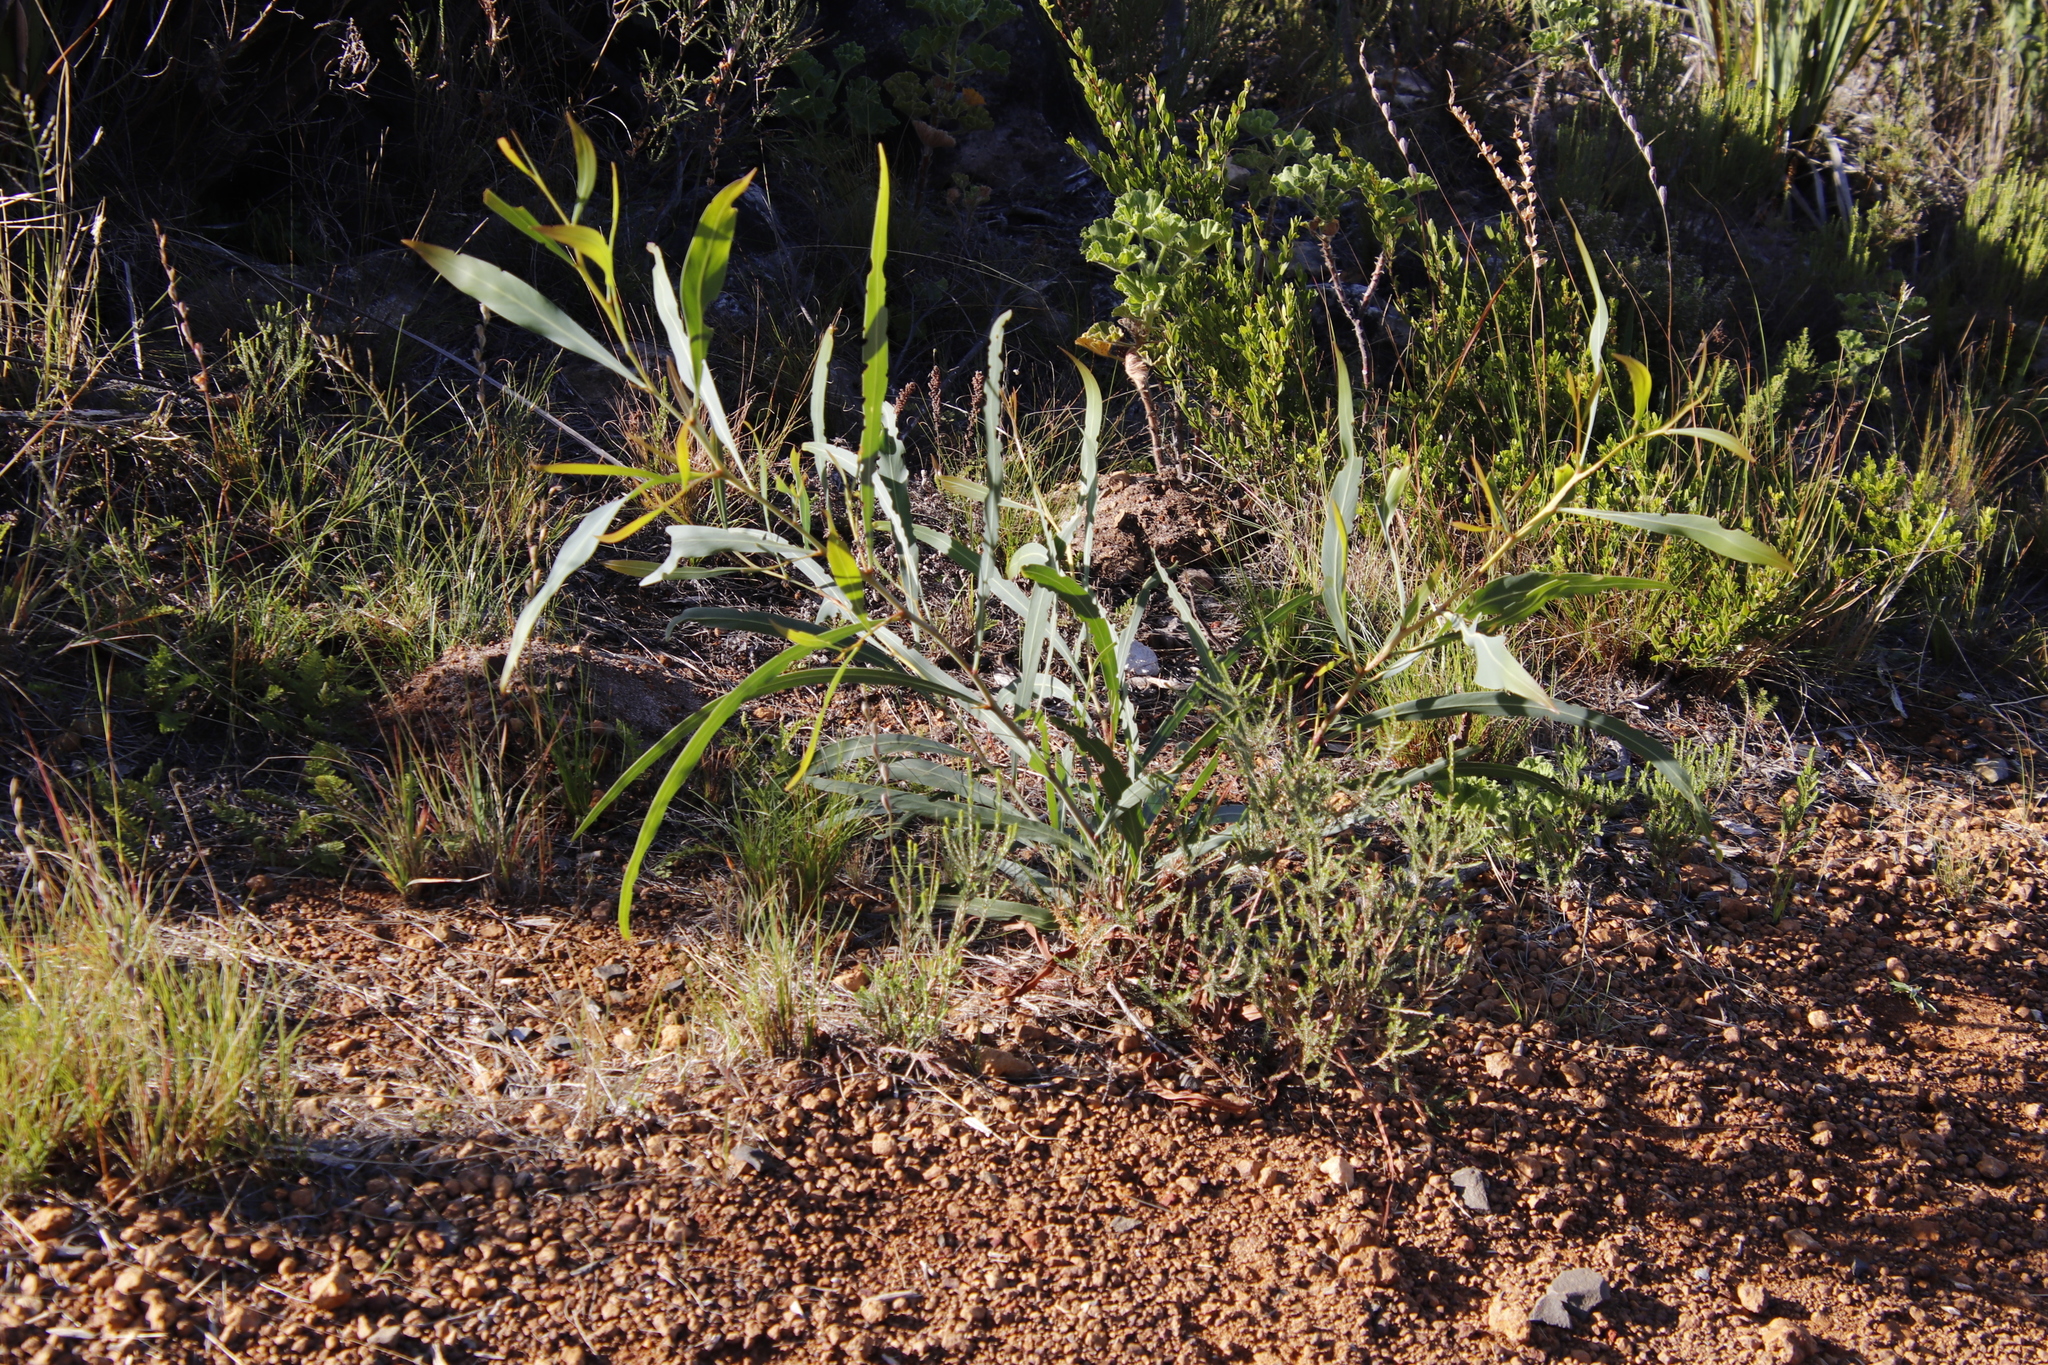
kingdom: Plantae
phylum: Tracheophyta
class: Magnoliopsida
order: Fabales
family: Fabaceae
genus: Acacia
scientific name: Acacia saligna
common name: Orange wattle
